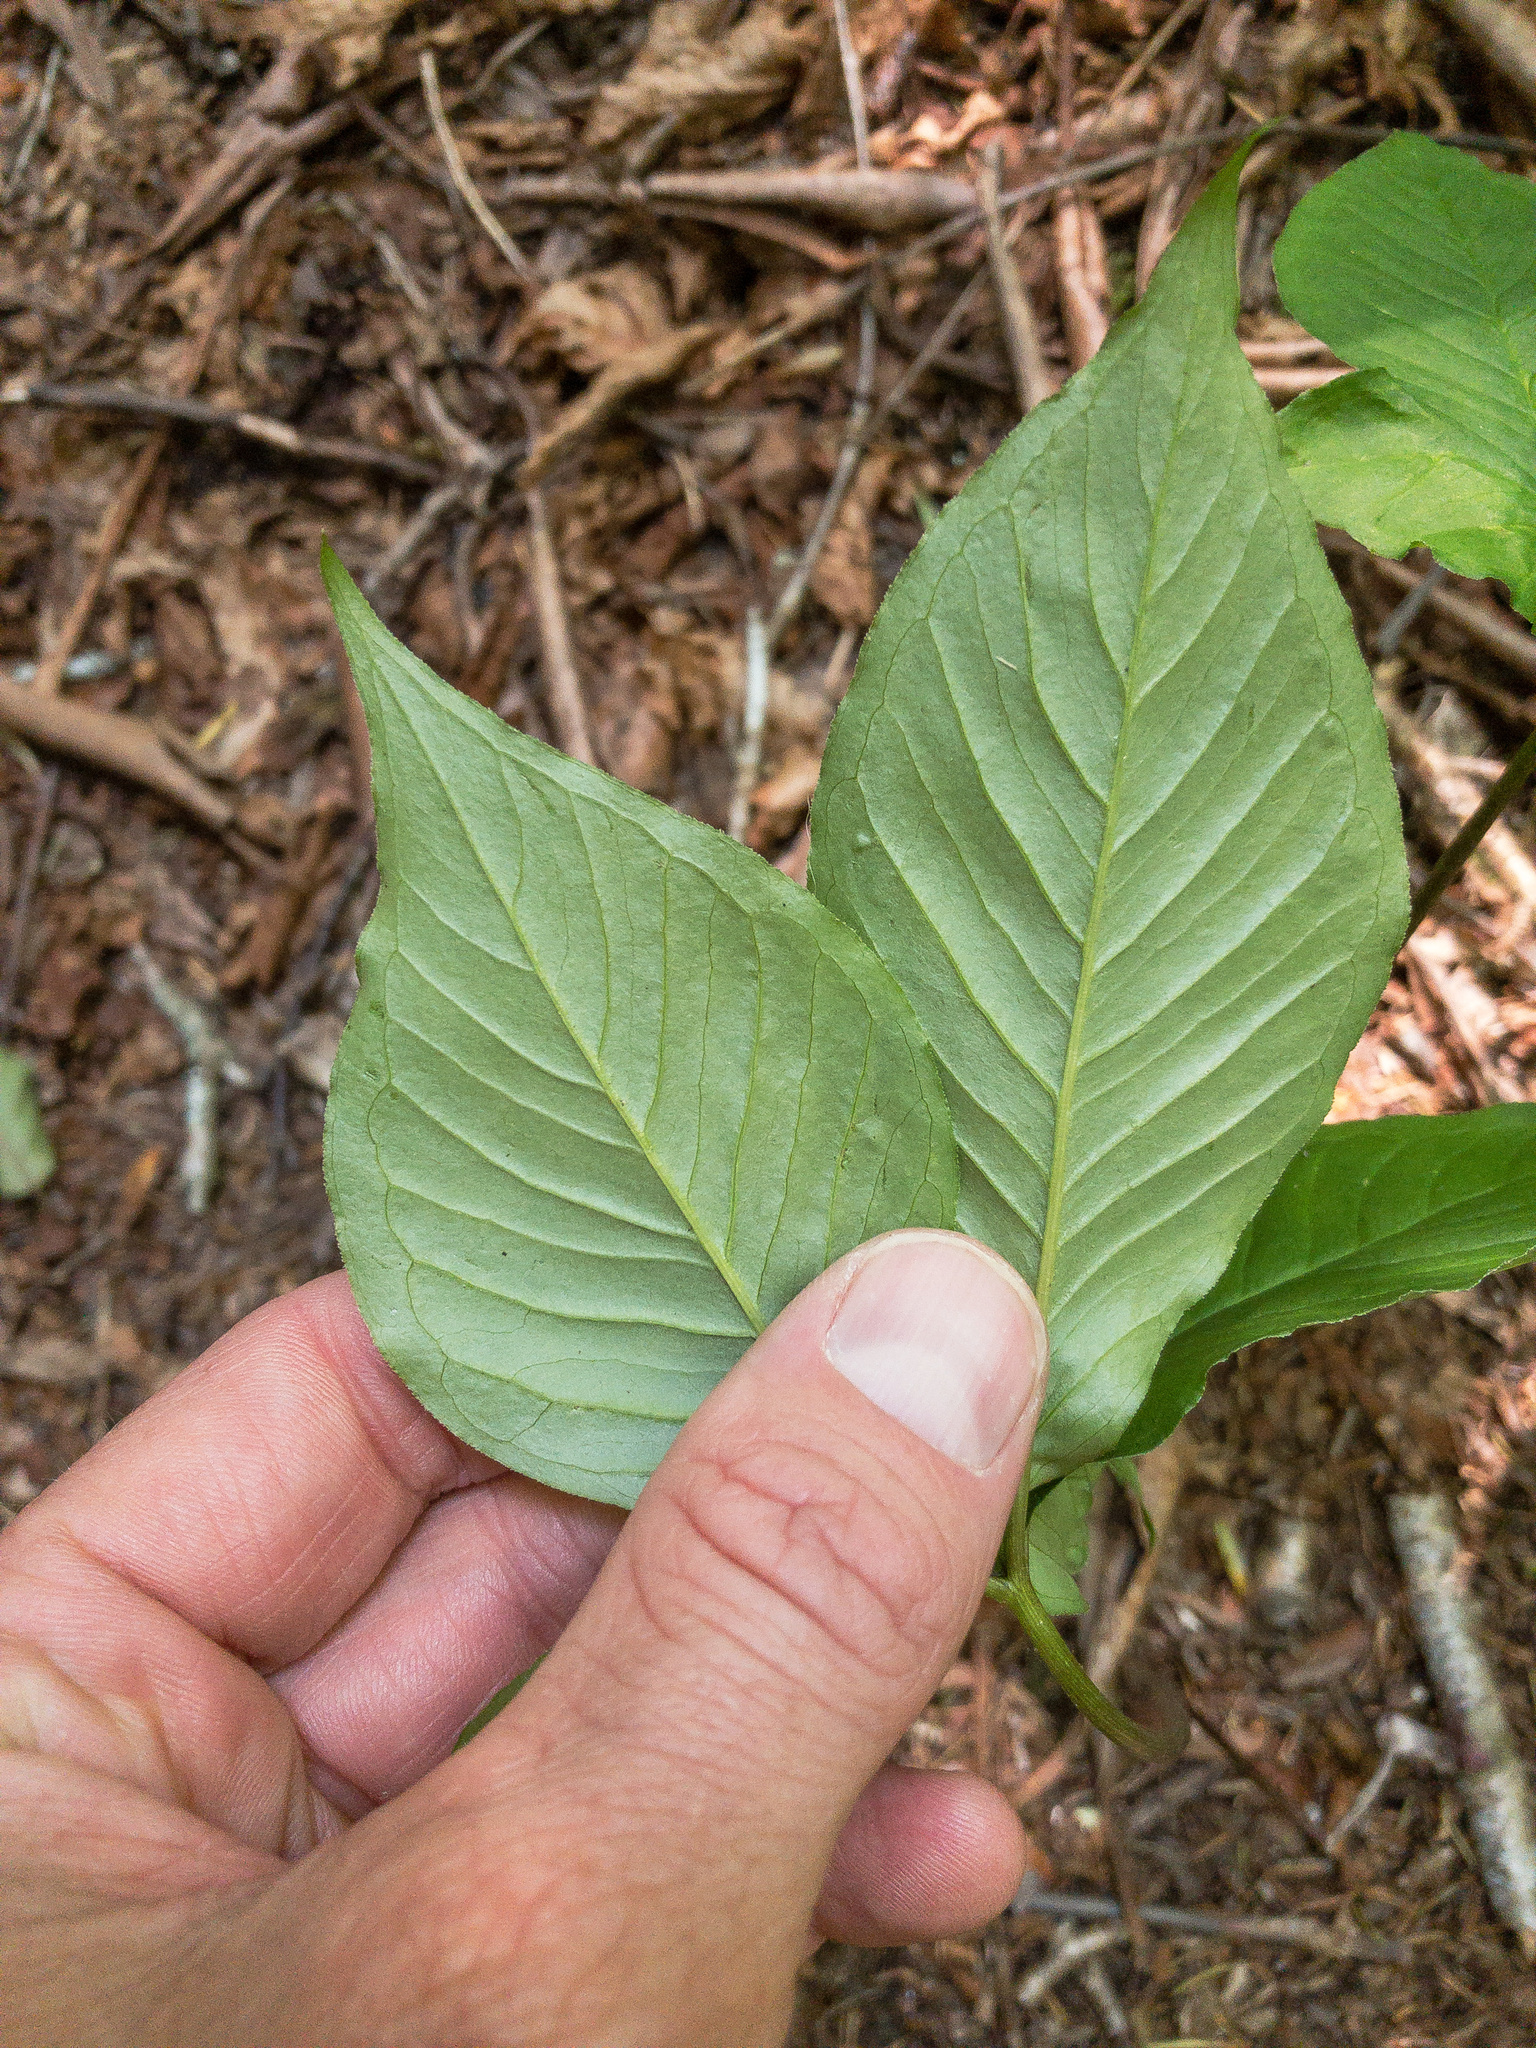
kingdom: Plantae
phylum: Tracheophyta
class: Liliopsida
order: Alismatales
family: Araceae
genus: Arisaema
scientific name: Arisaema quinatum
